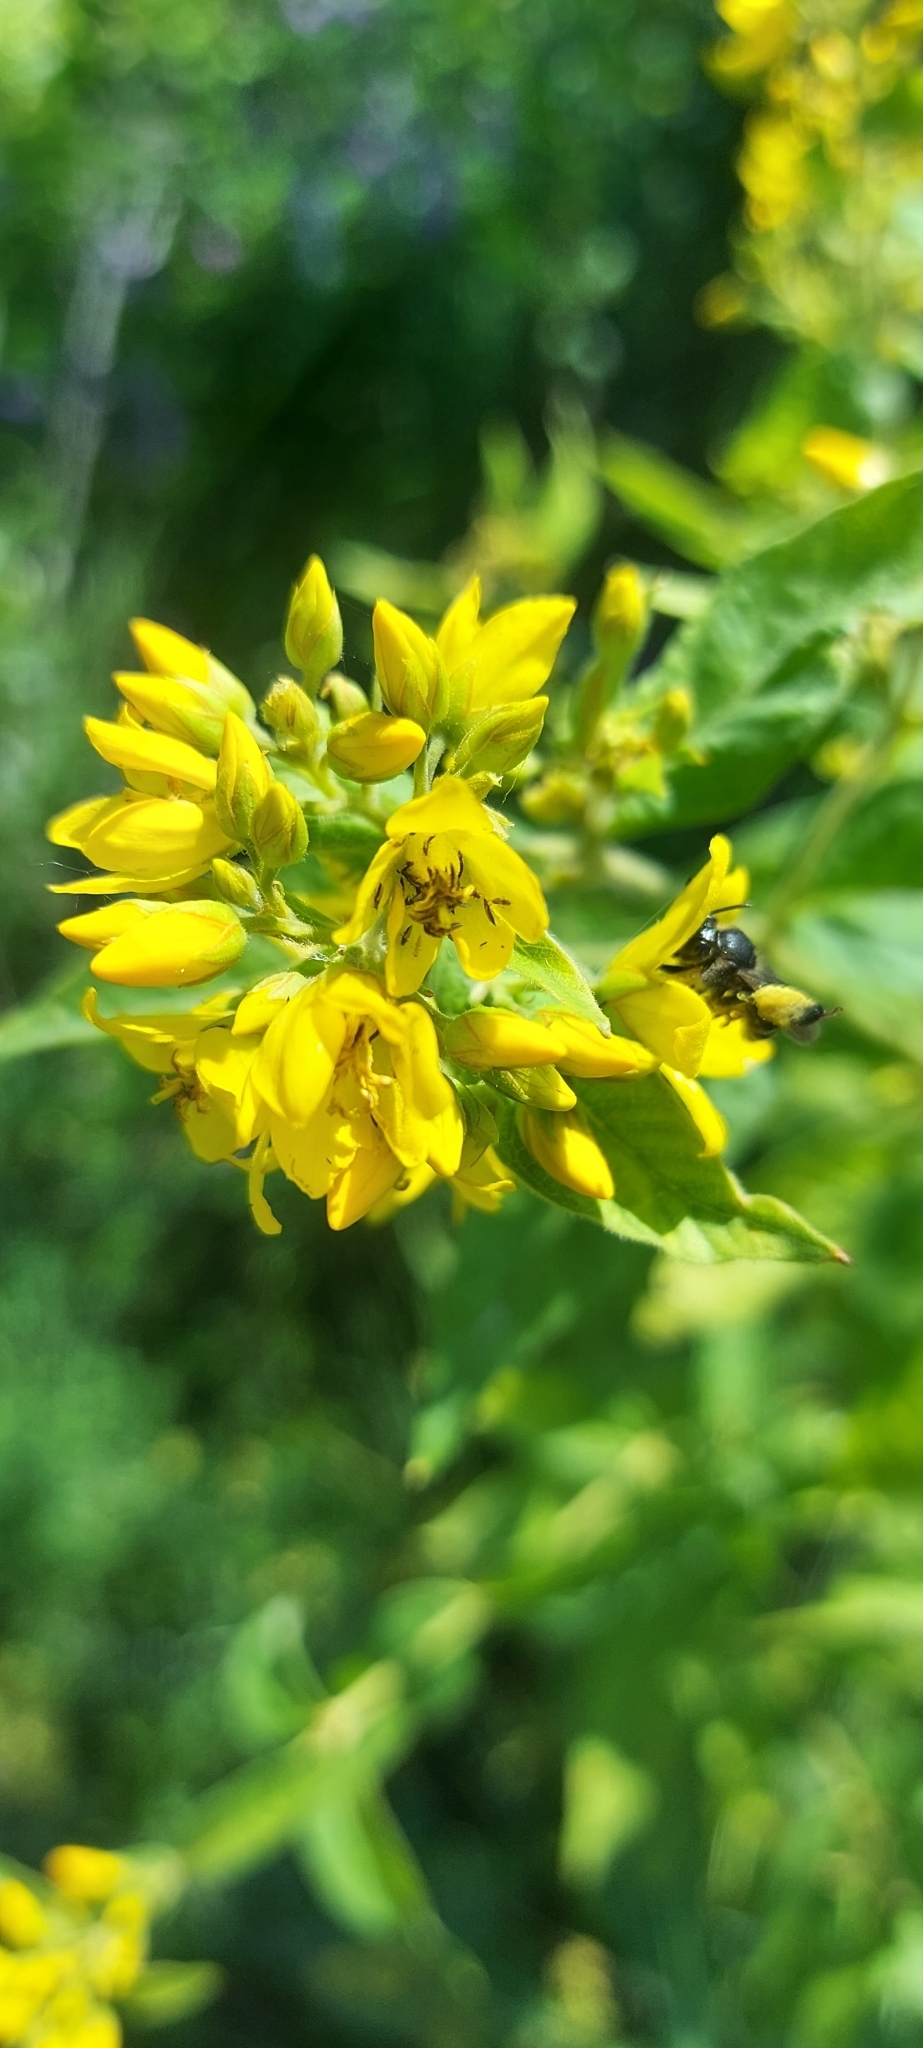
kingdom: Plantae
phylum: Tracheophyta
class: Magnoliopsida
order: Ericales
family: Primulaceae
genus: Lysimachia
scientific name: Lysimachia vulgaris
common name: Yellow loosestrife
